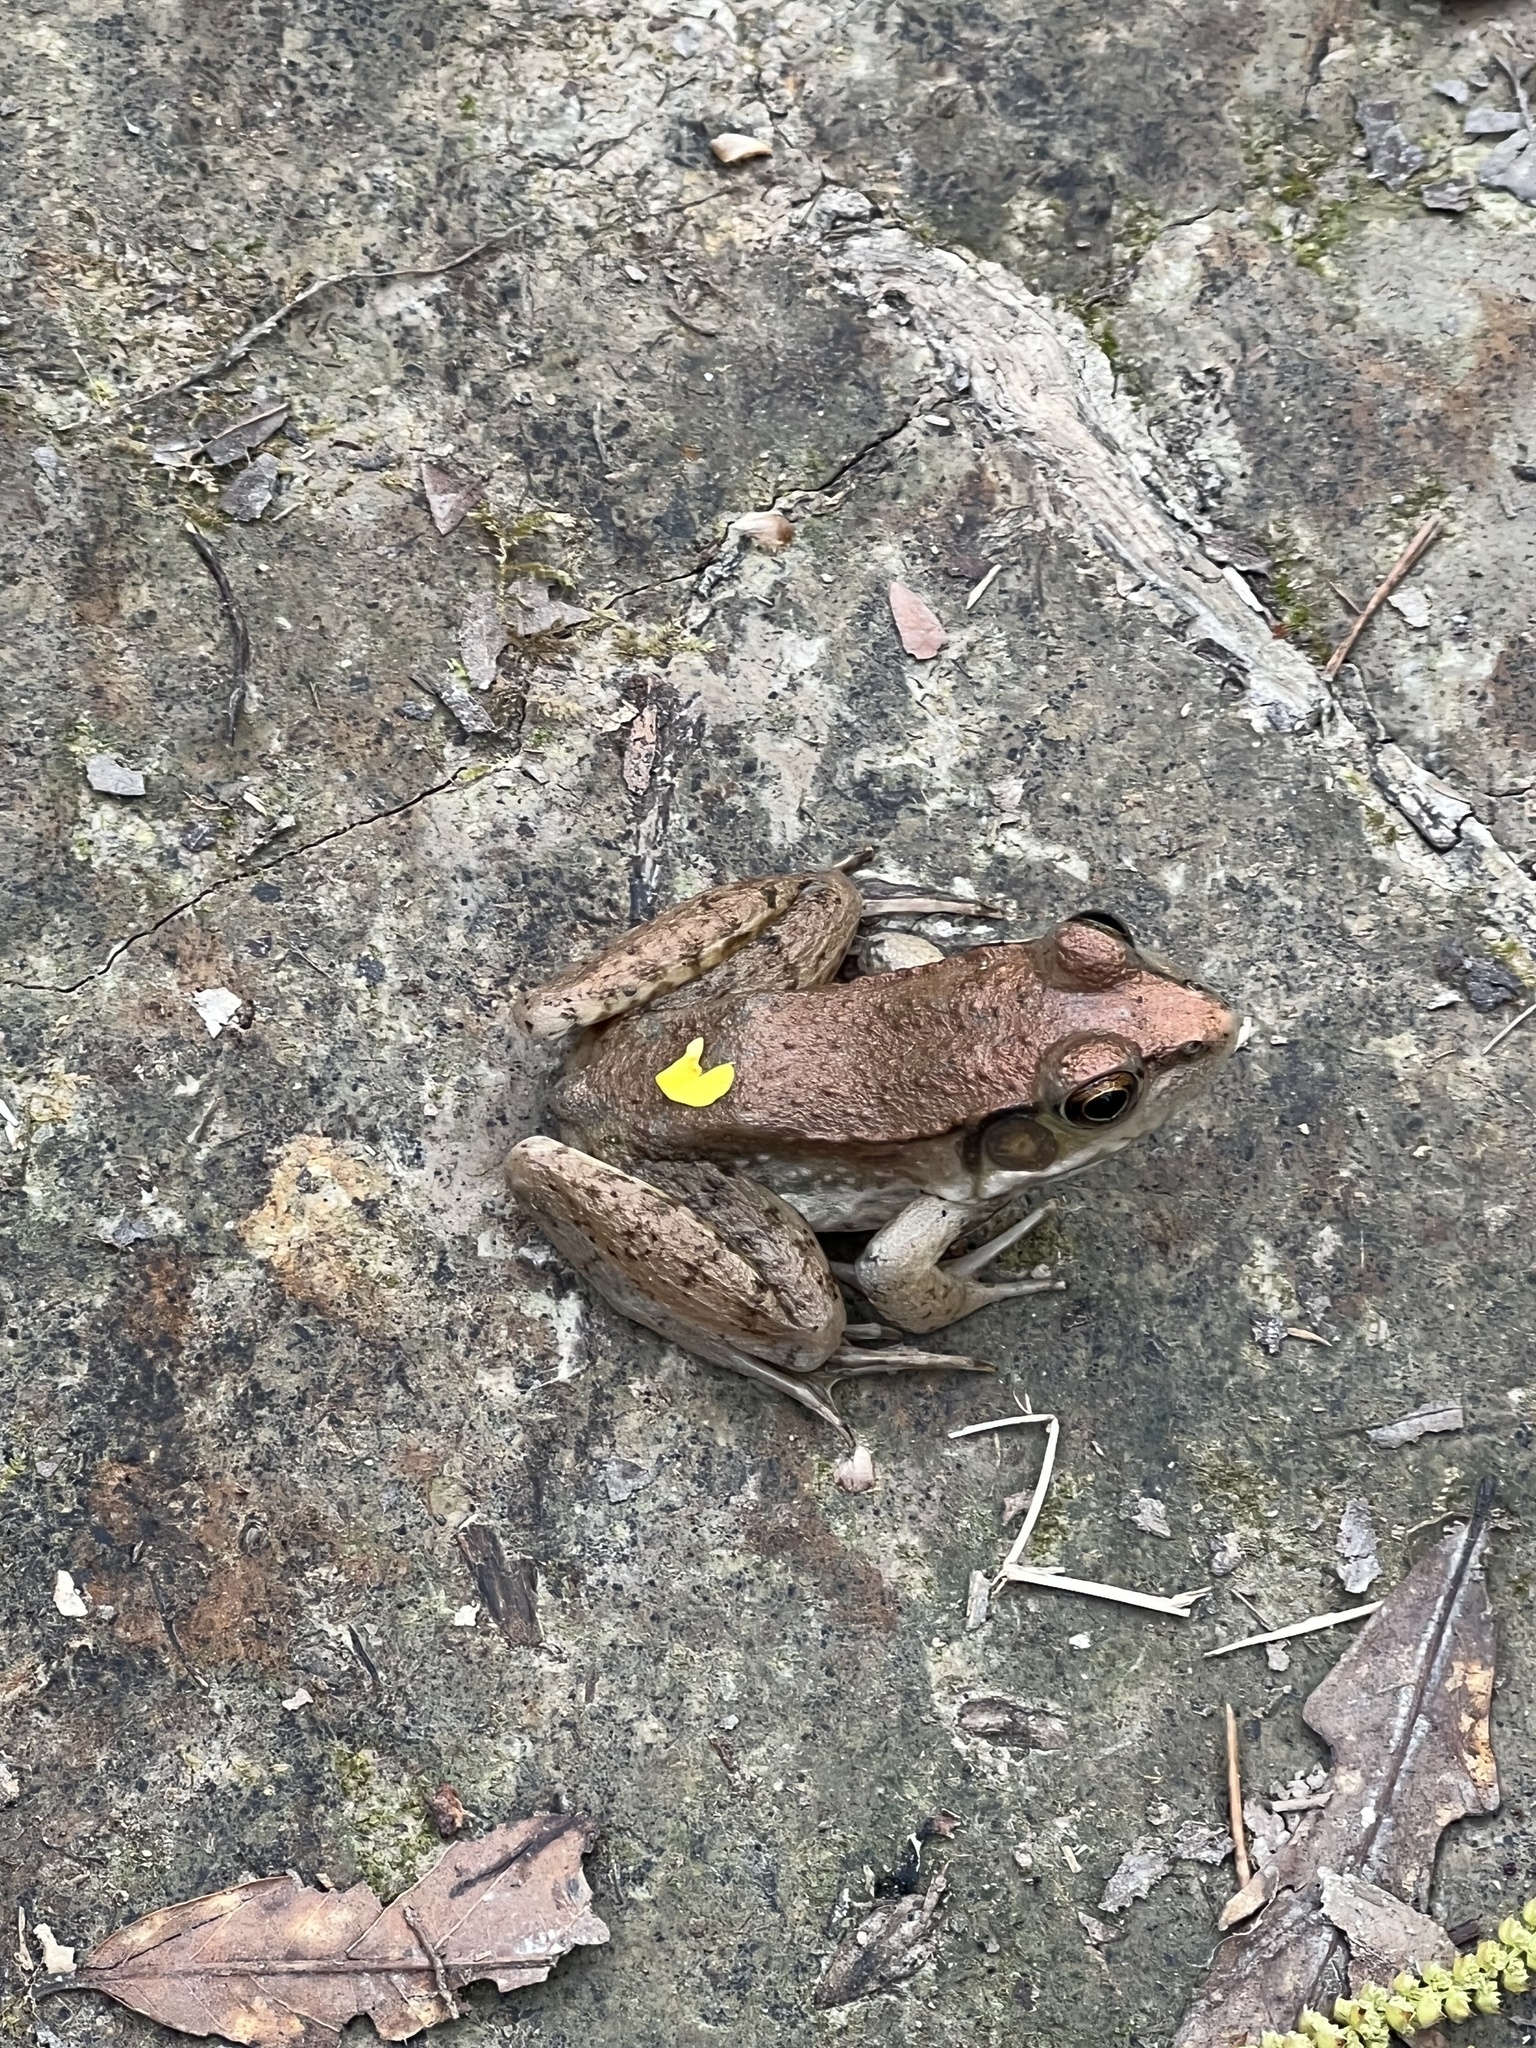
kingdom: Animalia
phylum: Chordata
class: Amphibia
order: Anura
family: Ranidae
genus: Lithobates
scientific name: Lithobates clamitans
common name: Green frog
